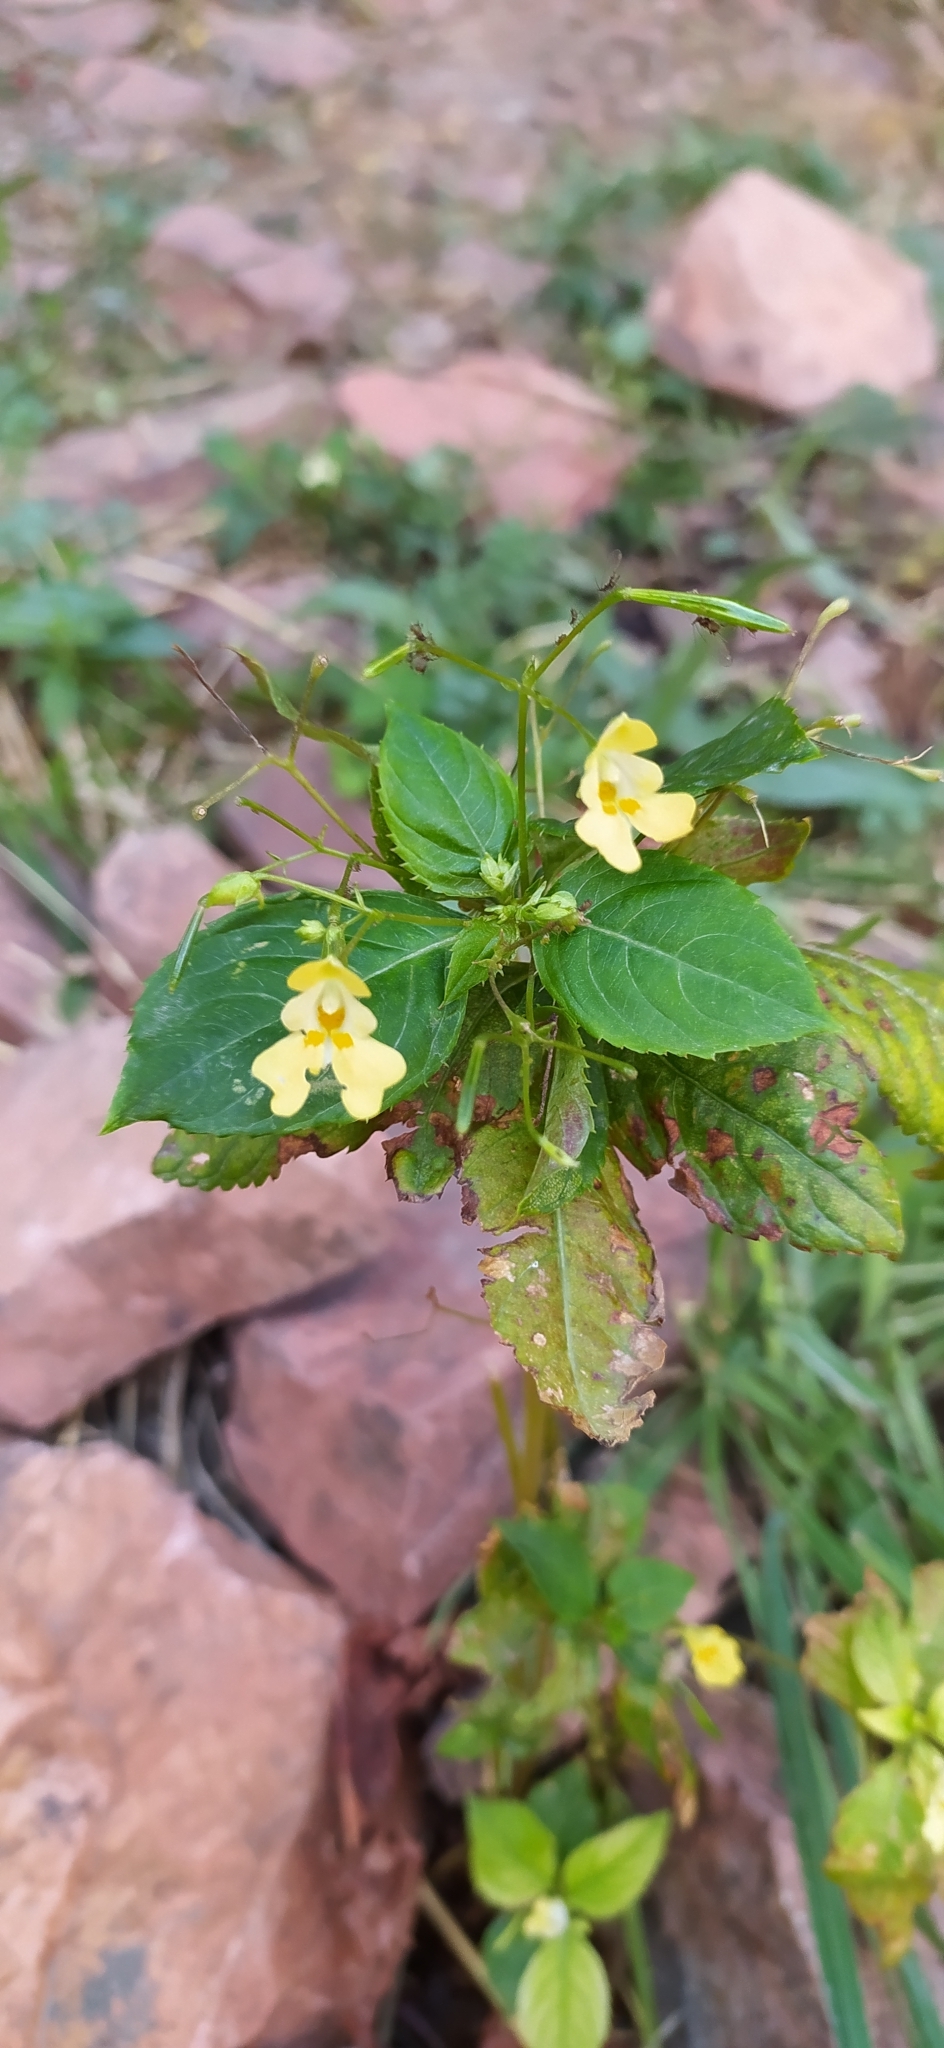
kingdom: Plantae
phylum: Tracheophyta
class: Magnoliopsida
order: Ericales
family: Balsaminaceae
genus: Impatiens
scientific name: Impatiens parviflora
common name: Small balsam
